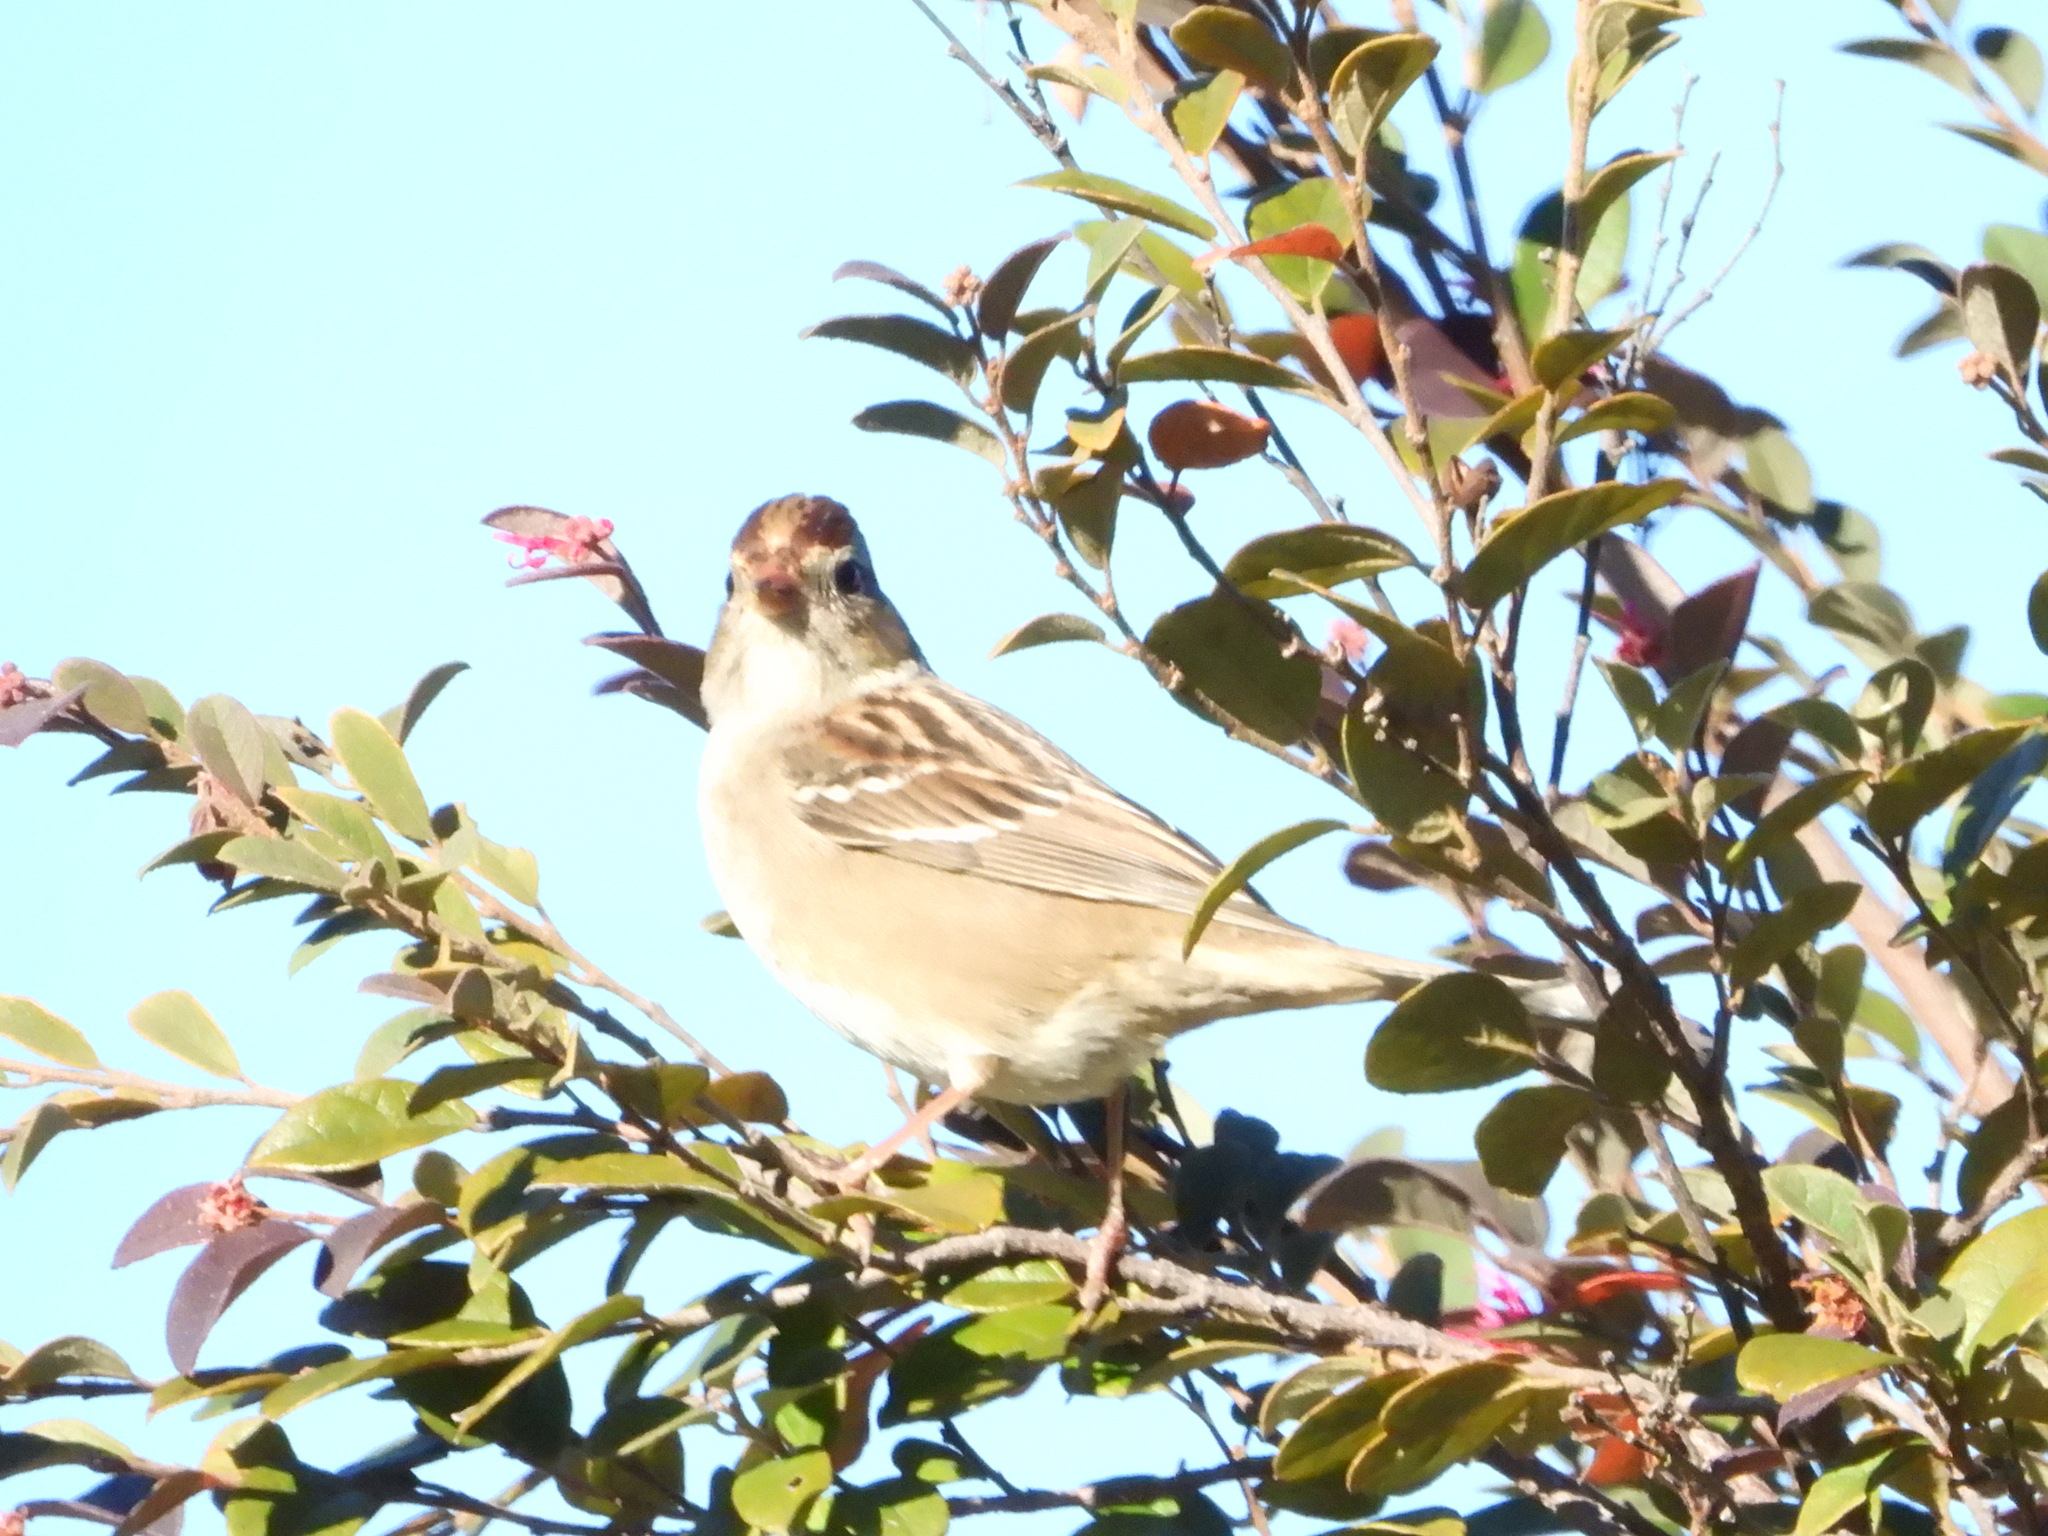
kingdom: Animalia
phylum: Chordata
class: Aves
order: Passeriformes
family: Passerellidae
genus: Zonotrichia
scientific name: Zonotrichia leucophrys
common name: White-crowned sparrow
